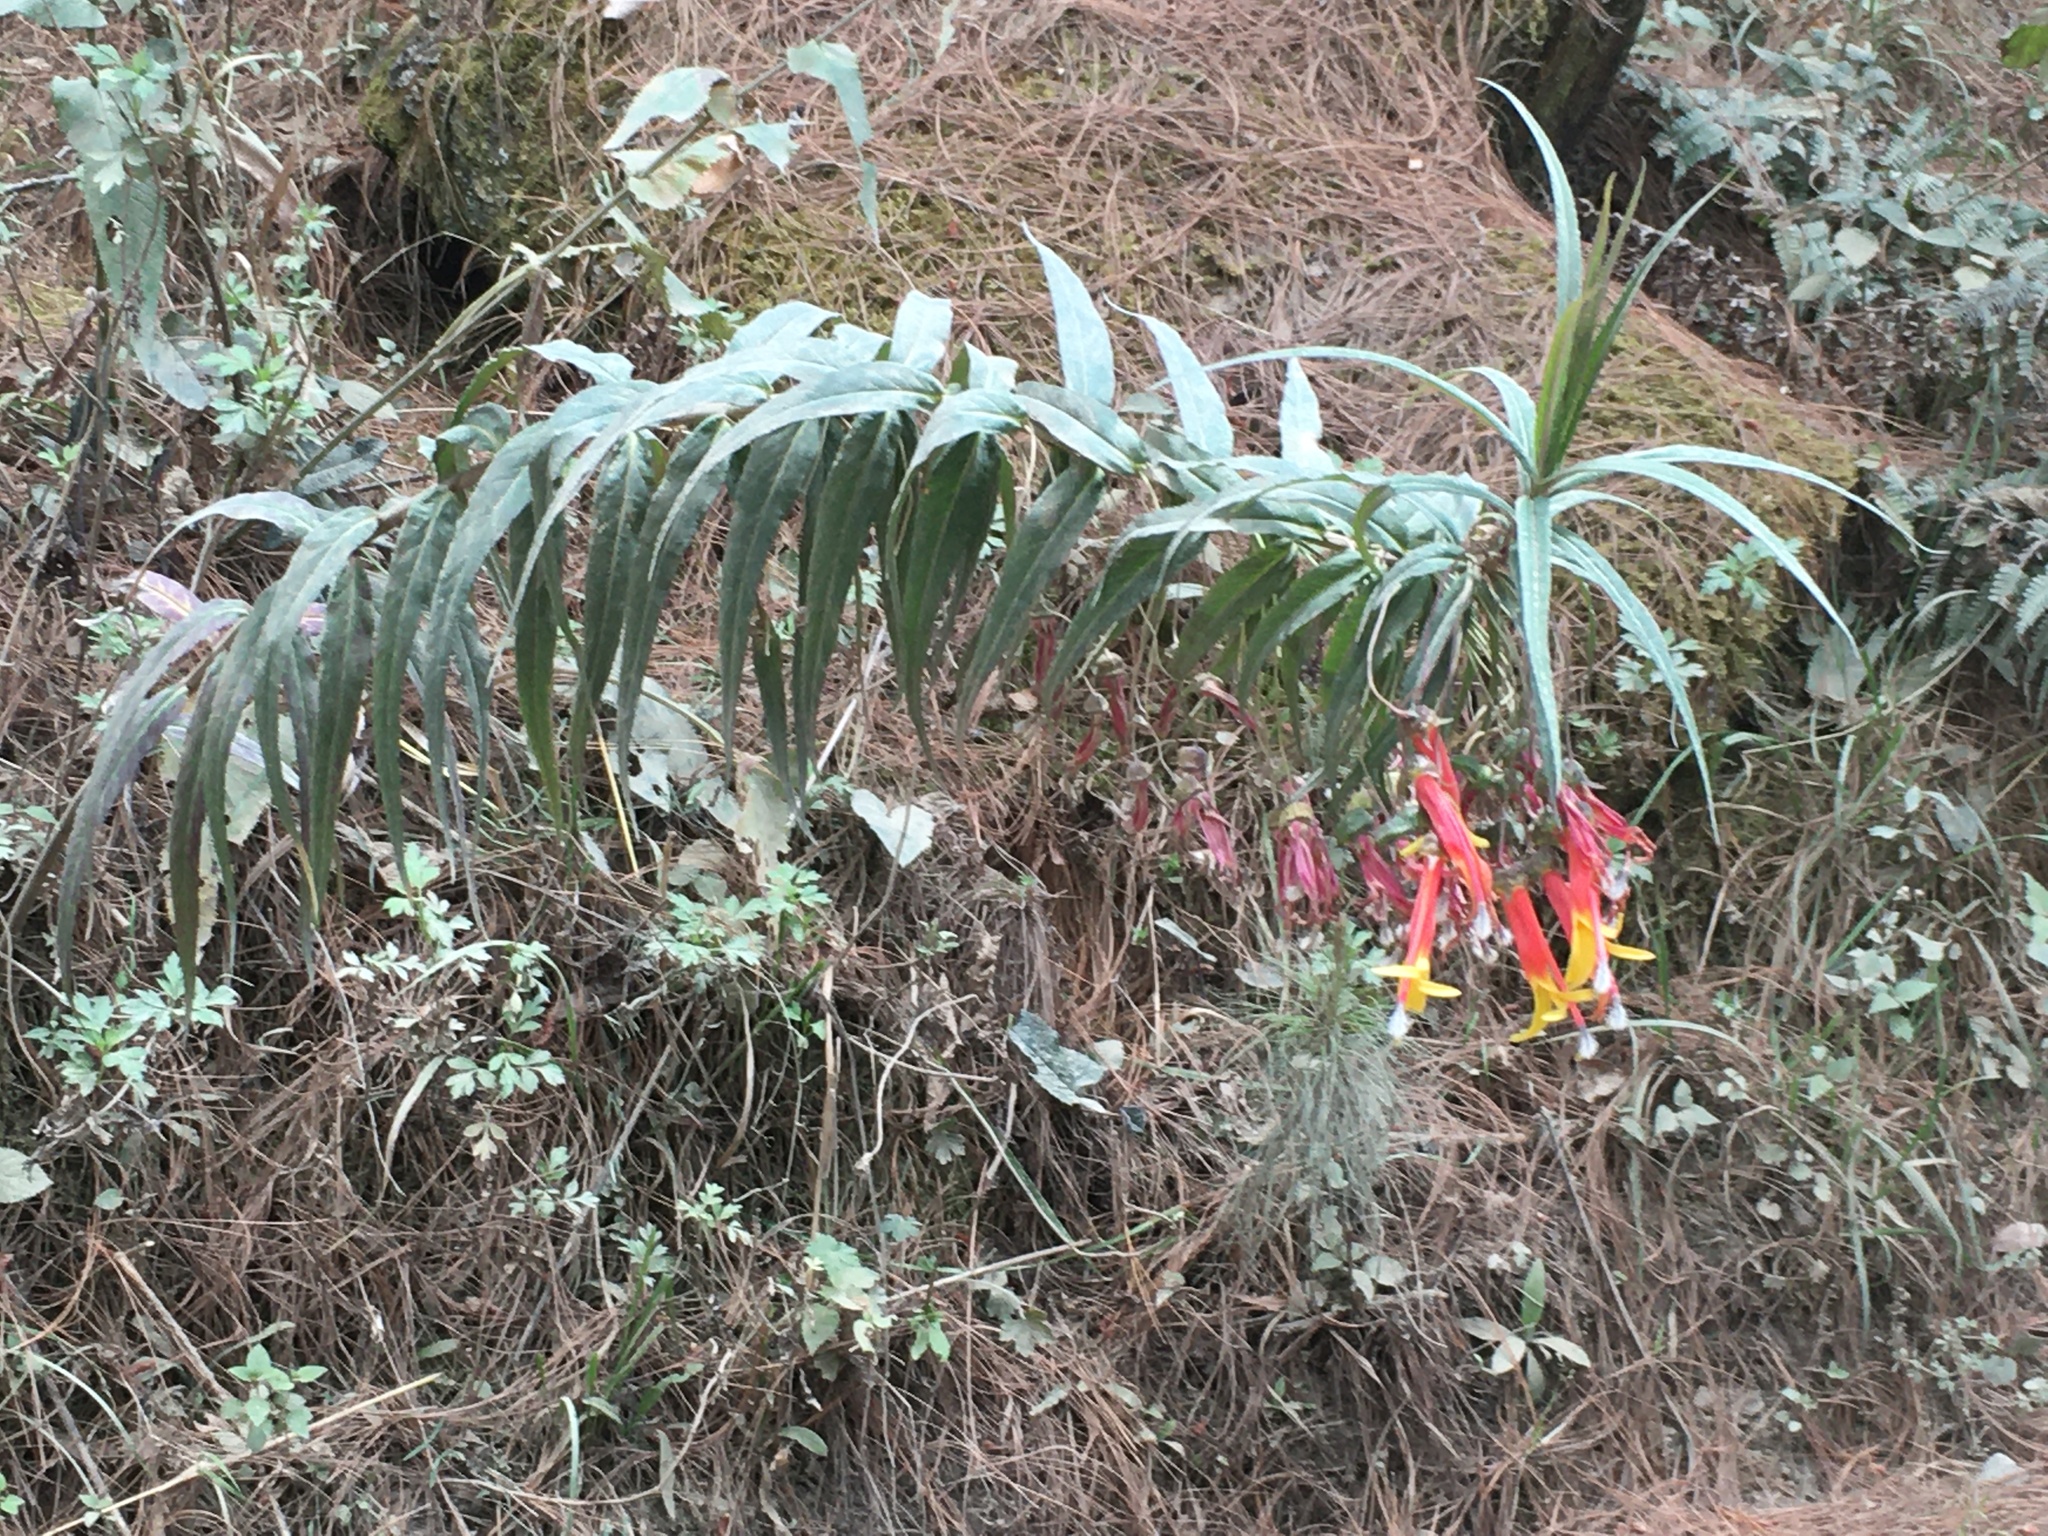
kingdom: Plantae
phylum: Tracheophyta
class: Magnoliopsida
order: Asterales
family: Campanulaceae
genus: Lobelia
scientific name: Lobelia laxiflora
